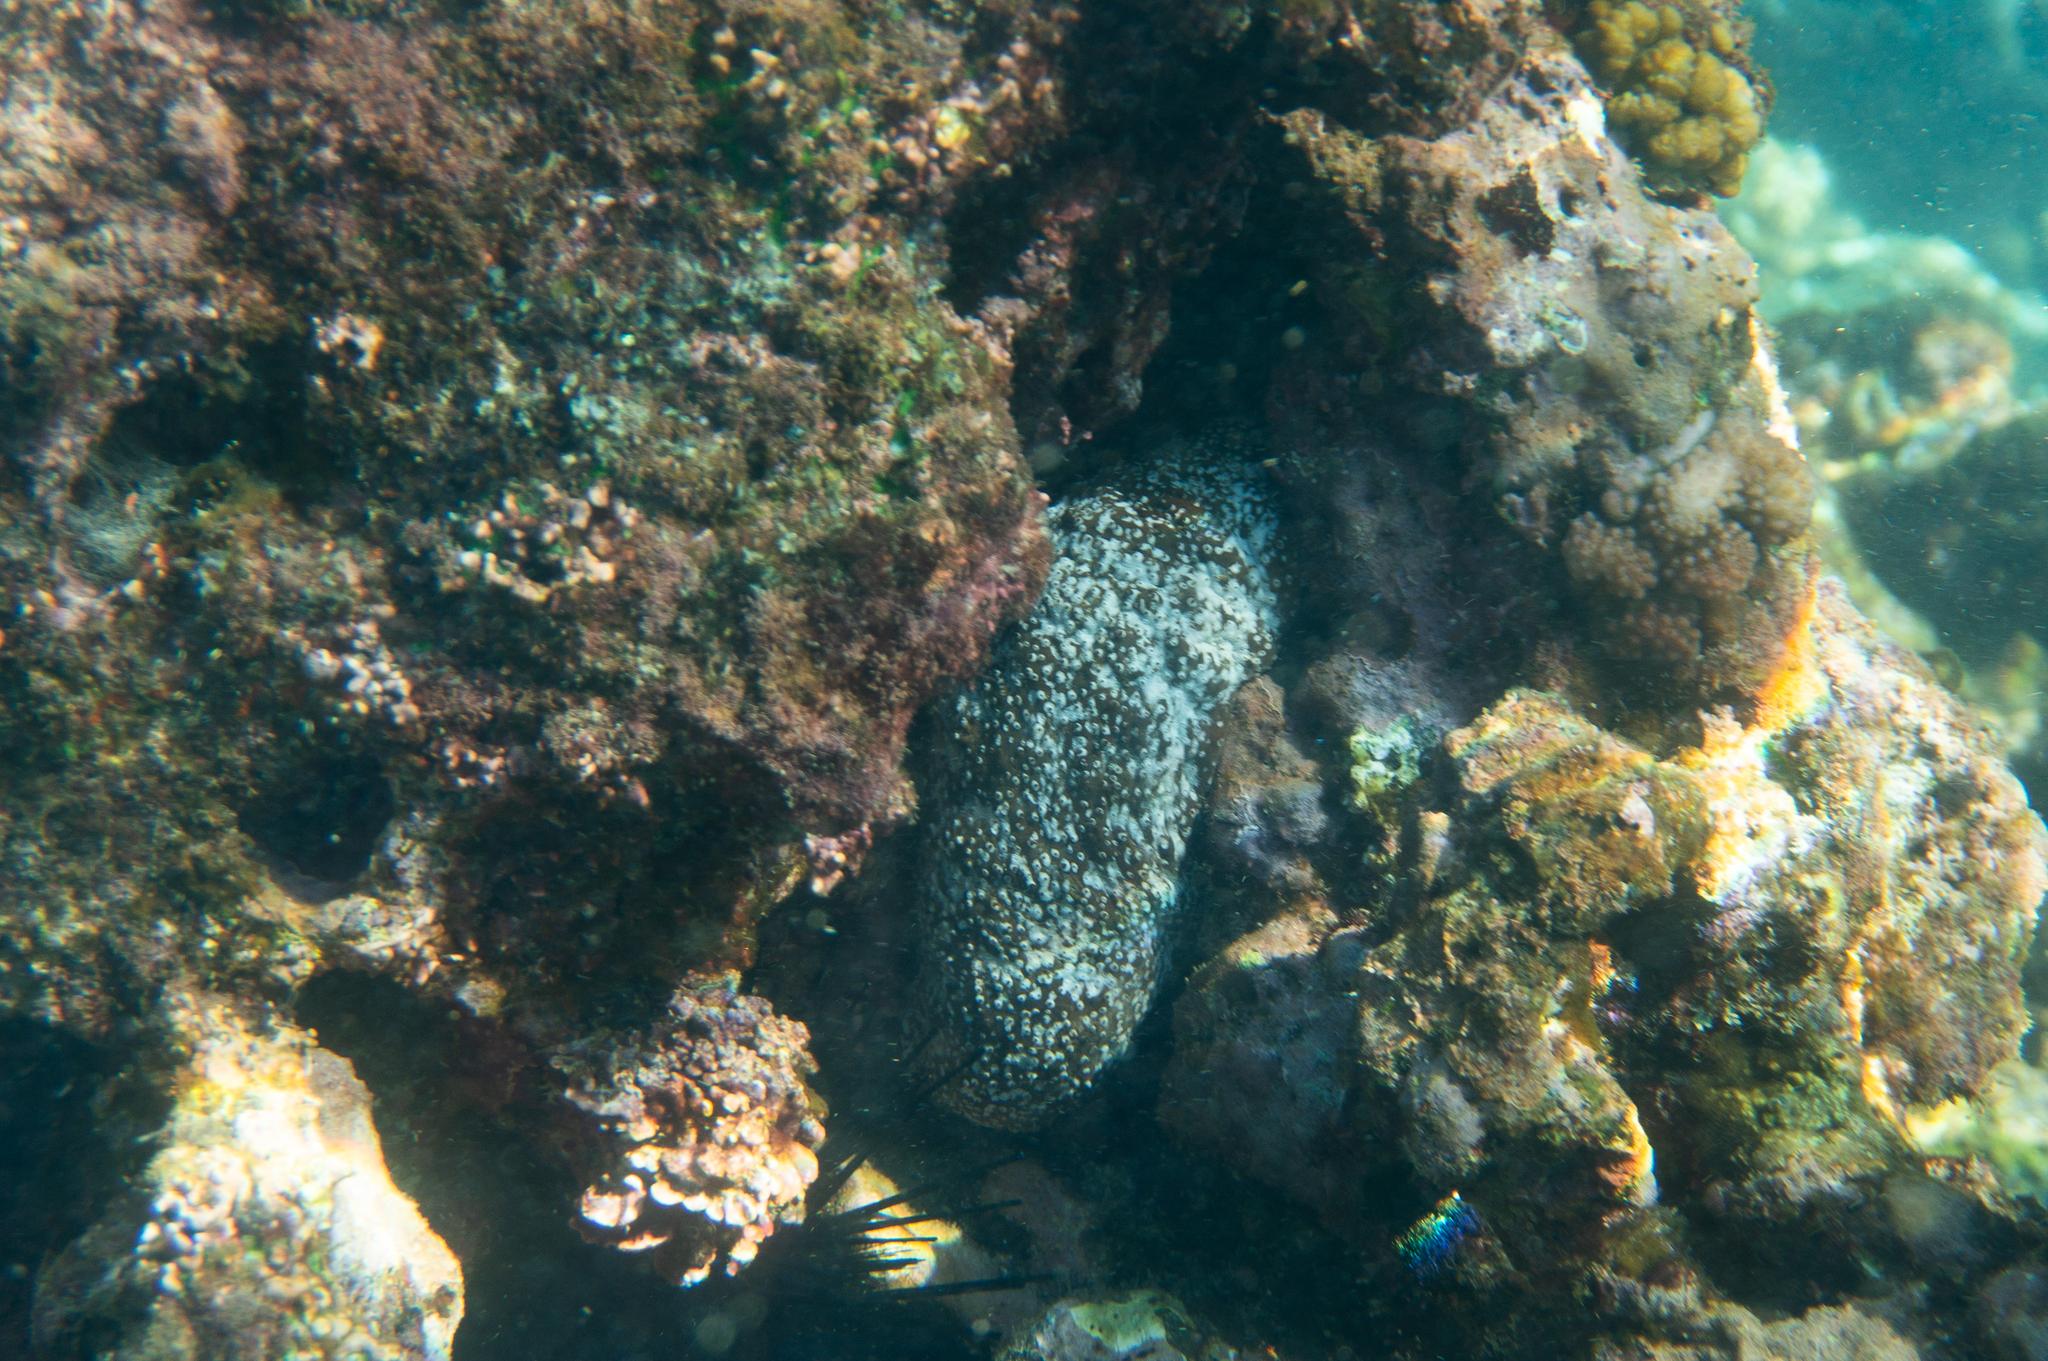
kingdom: Animalia
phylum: Echinodermata
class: Holothuroidea
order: Holothuriida
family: Holothuriidae
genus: Actinopyga
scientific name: Actinopyga varians
